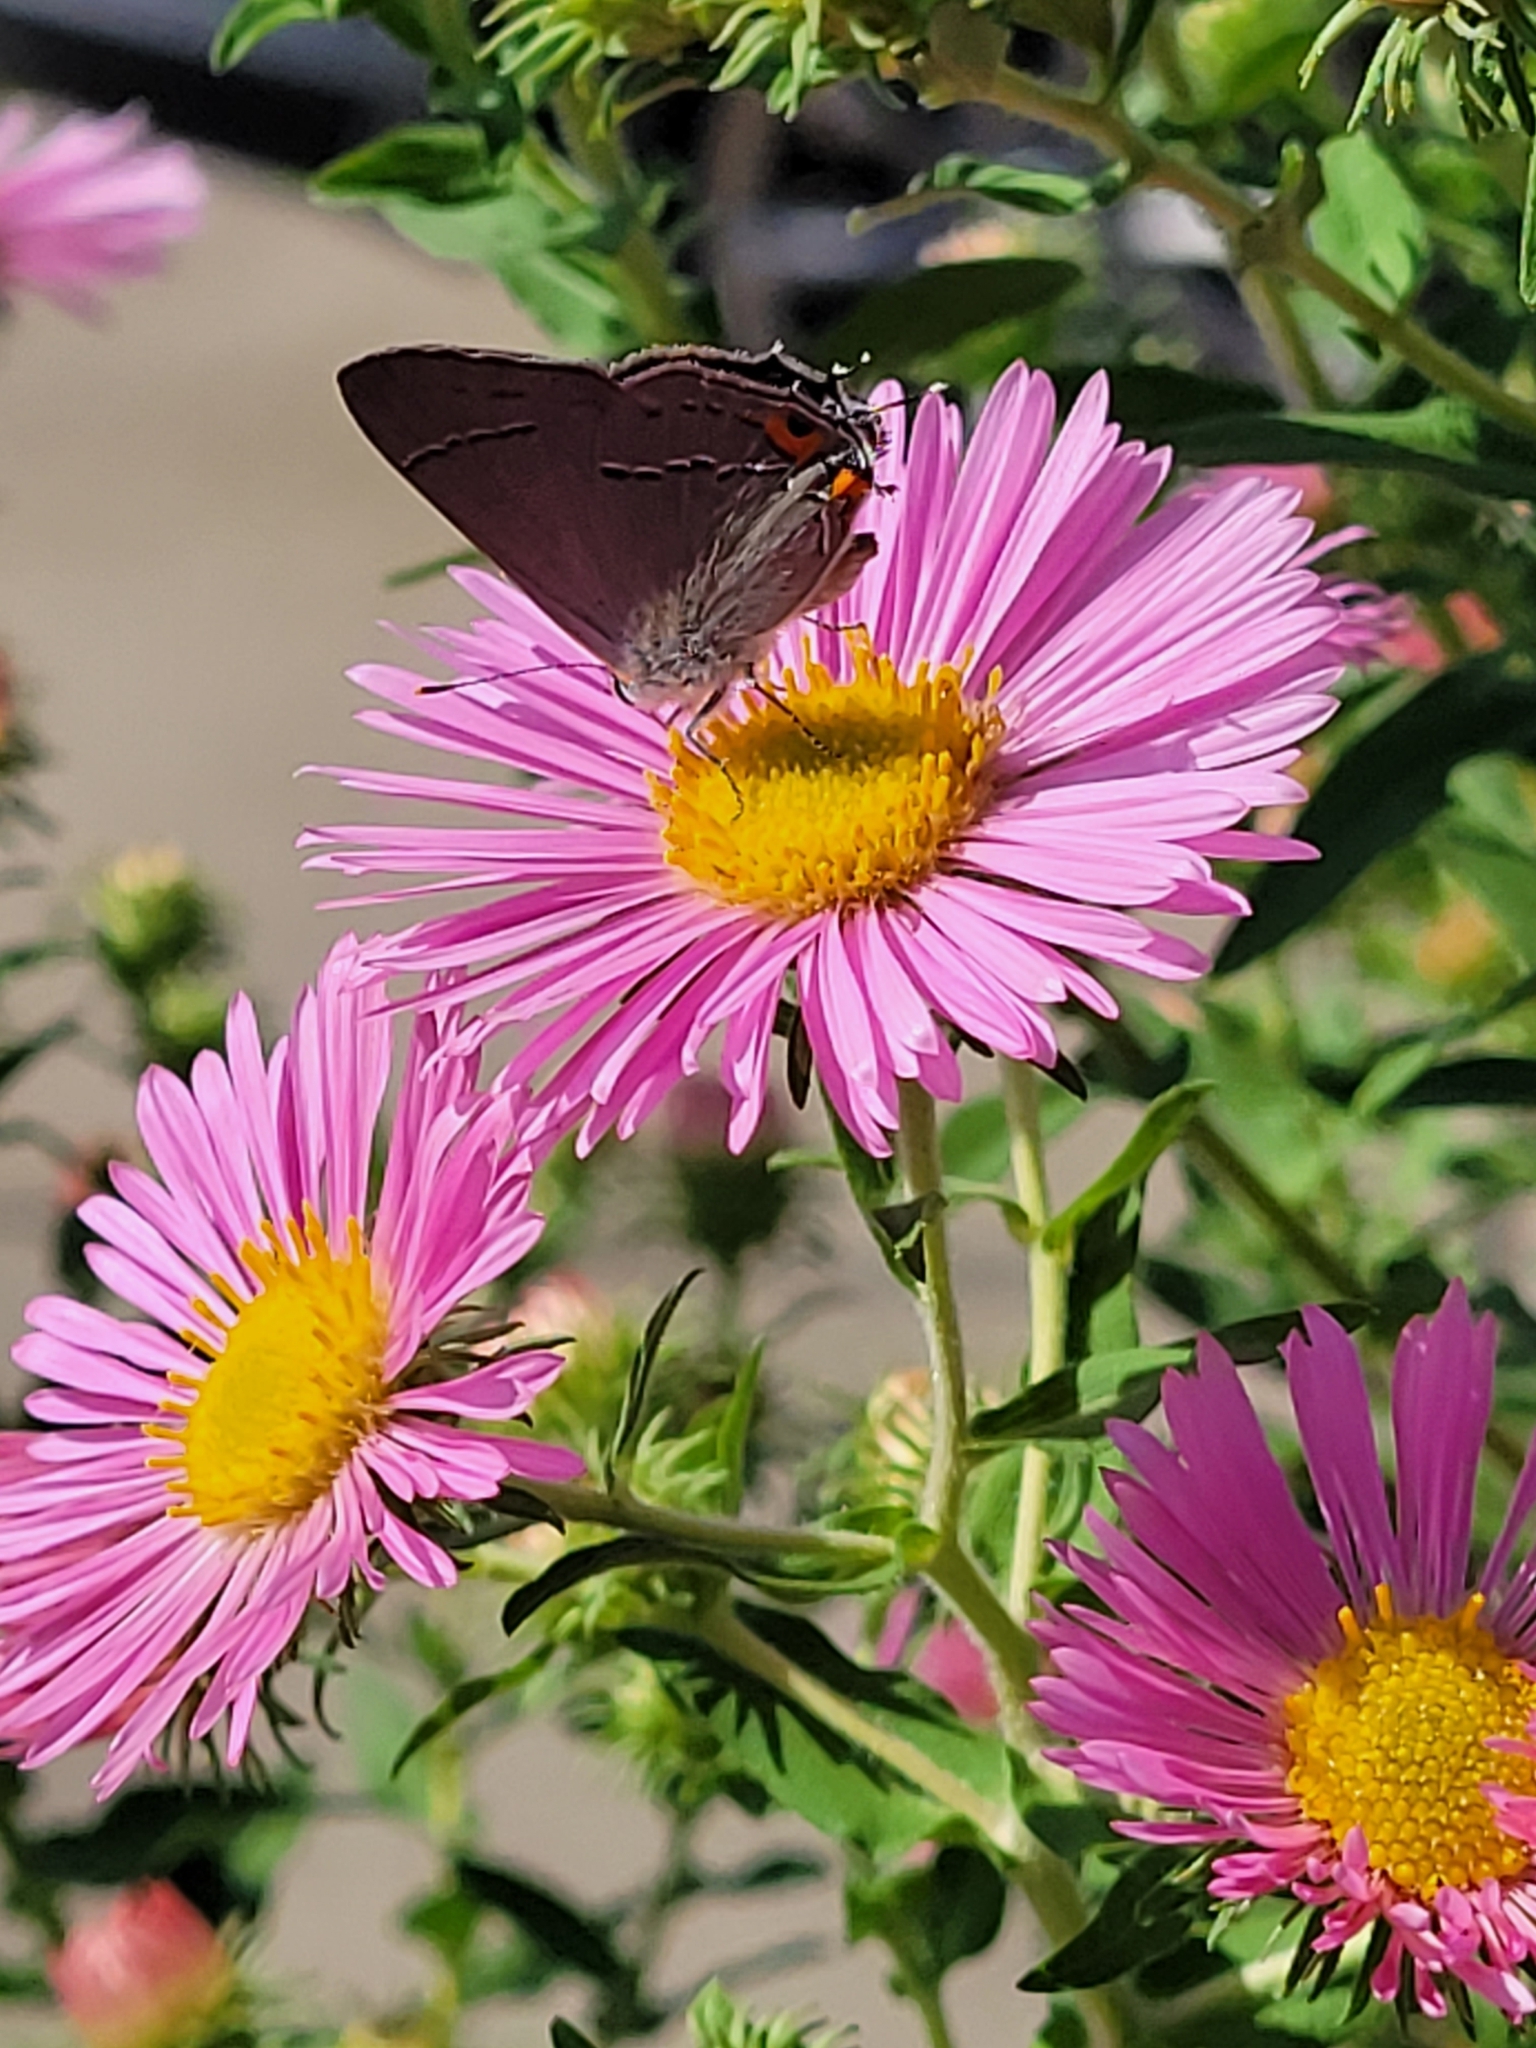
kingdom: Animalia
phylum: Arthropoda
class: Insecta
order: Lepidoptera
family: Lycaenidae
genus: Strymon
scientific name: Strymon melinus
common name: Gray hairstreak
